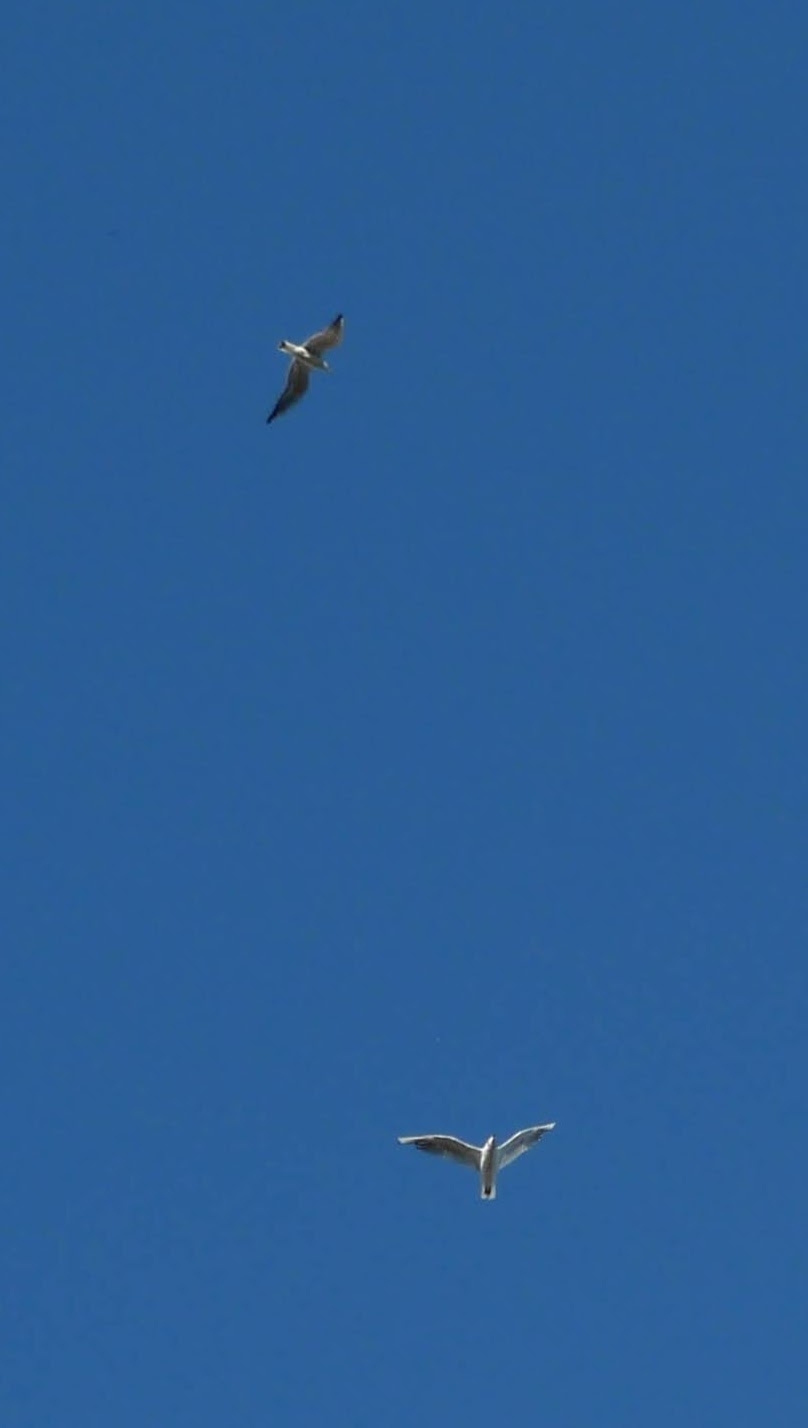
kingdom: Animalia
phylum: Chordata
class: Aves
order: Charadriiformes
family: Laridae
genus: Chroicocephalus
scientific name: Chroicocephalus ridibundus
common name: Black-headed gull
